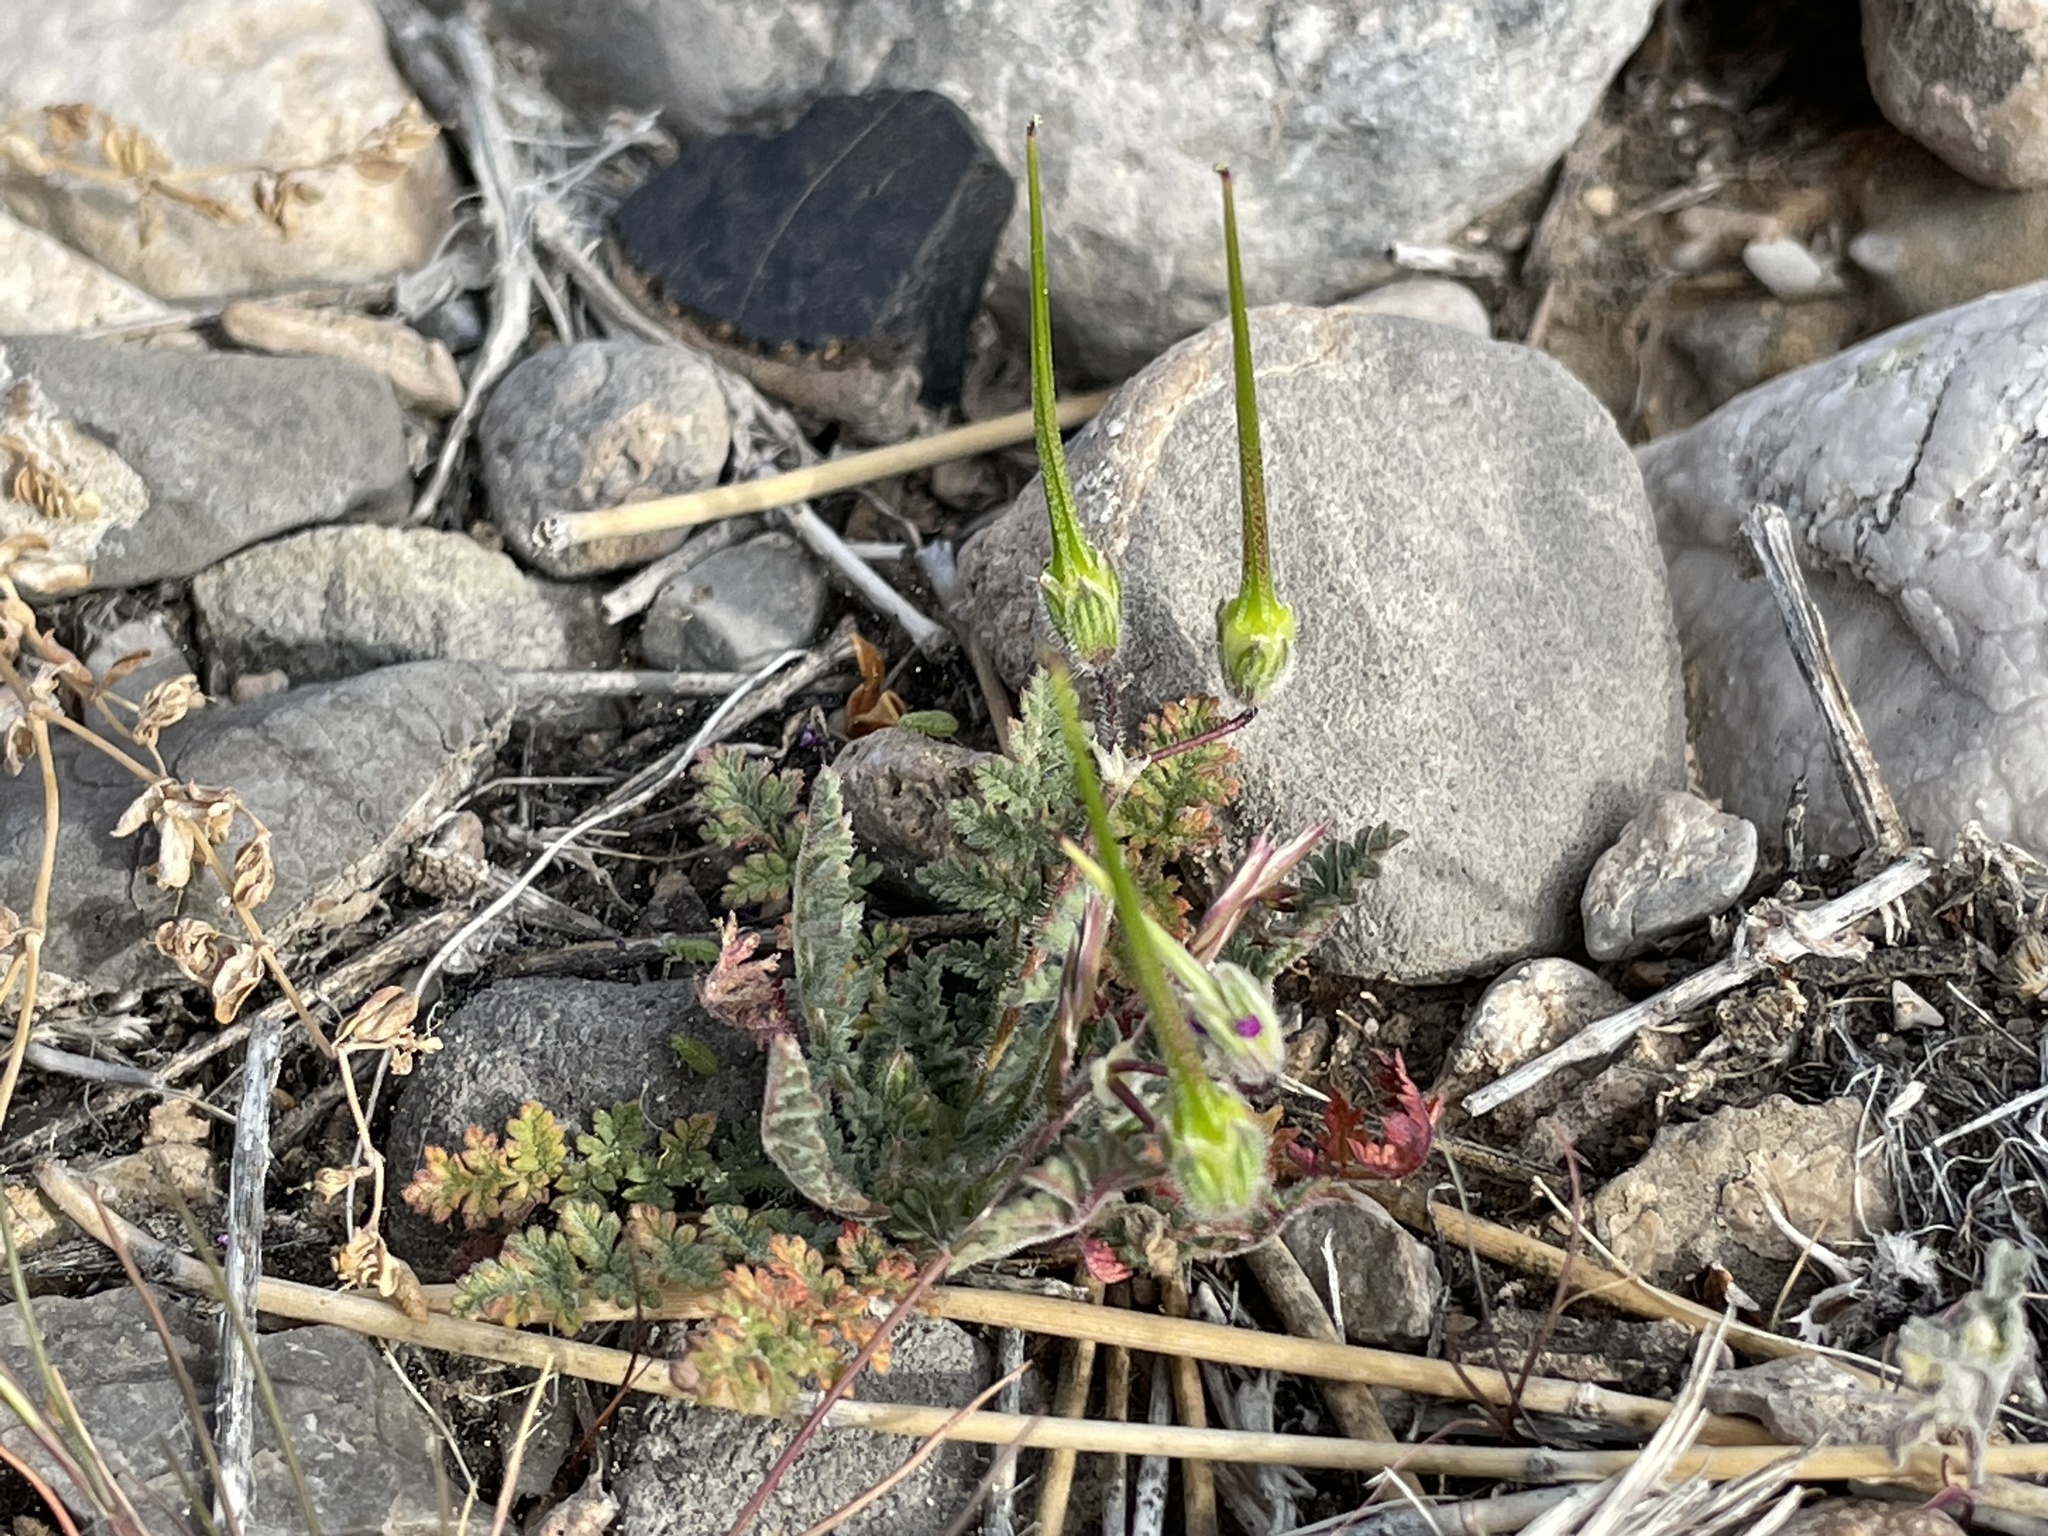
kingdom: Plantae
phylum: Tracheophyta
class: Magnoliopsida
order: Geraniales
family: Geraniaceae
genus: Erodium
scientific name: Erodium cicutarium
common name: Common stork's-bill
